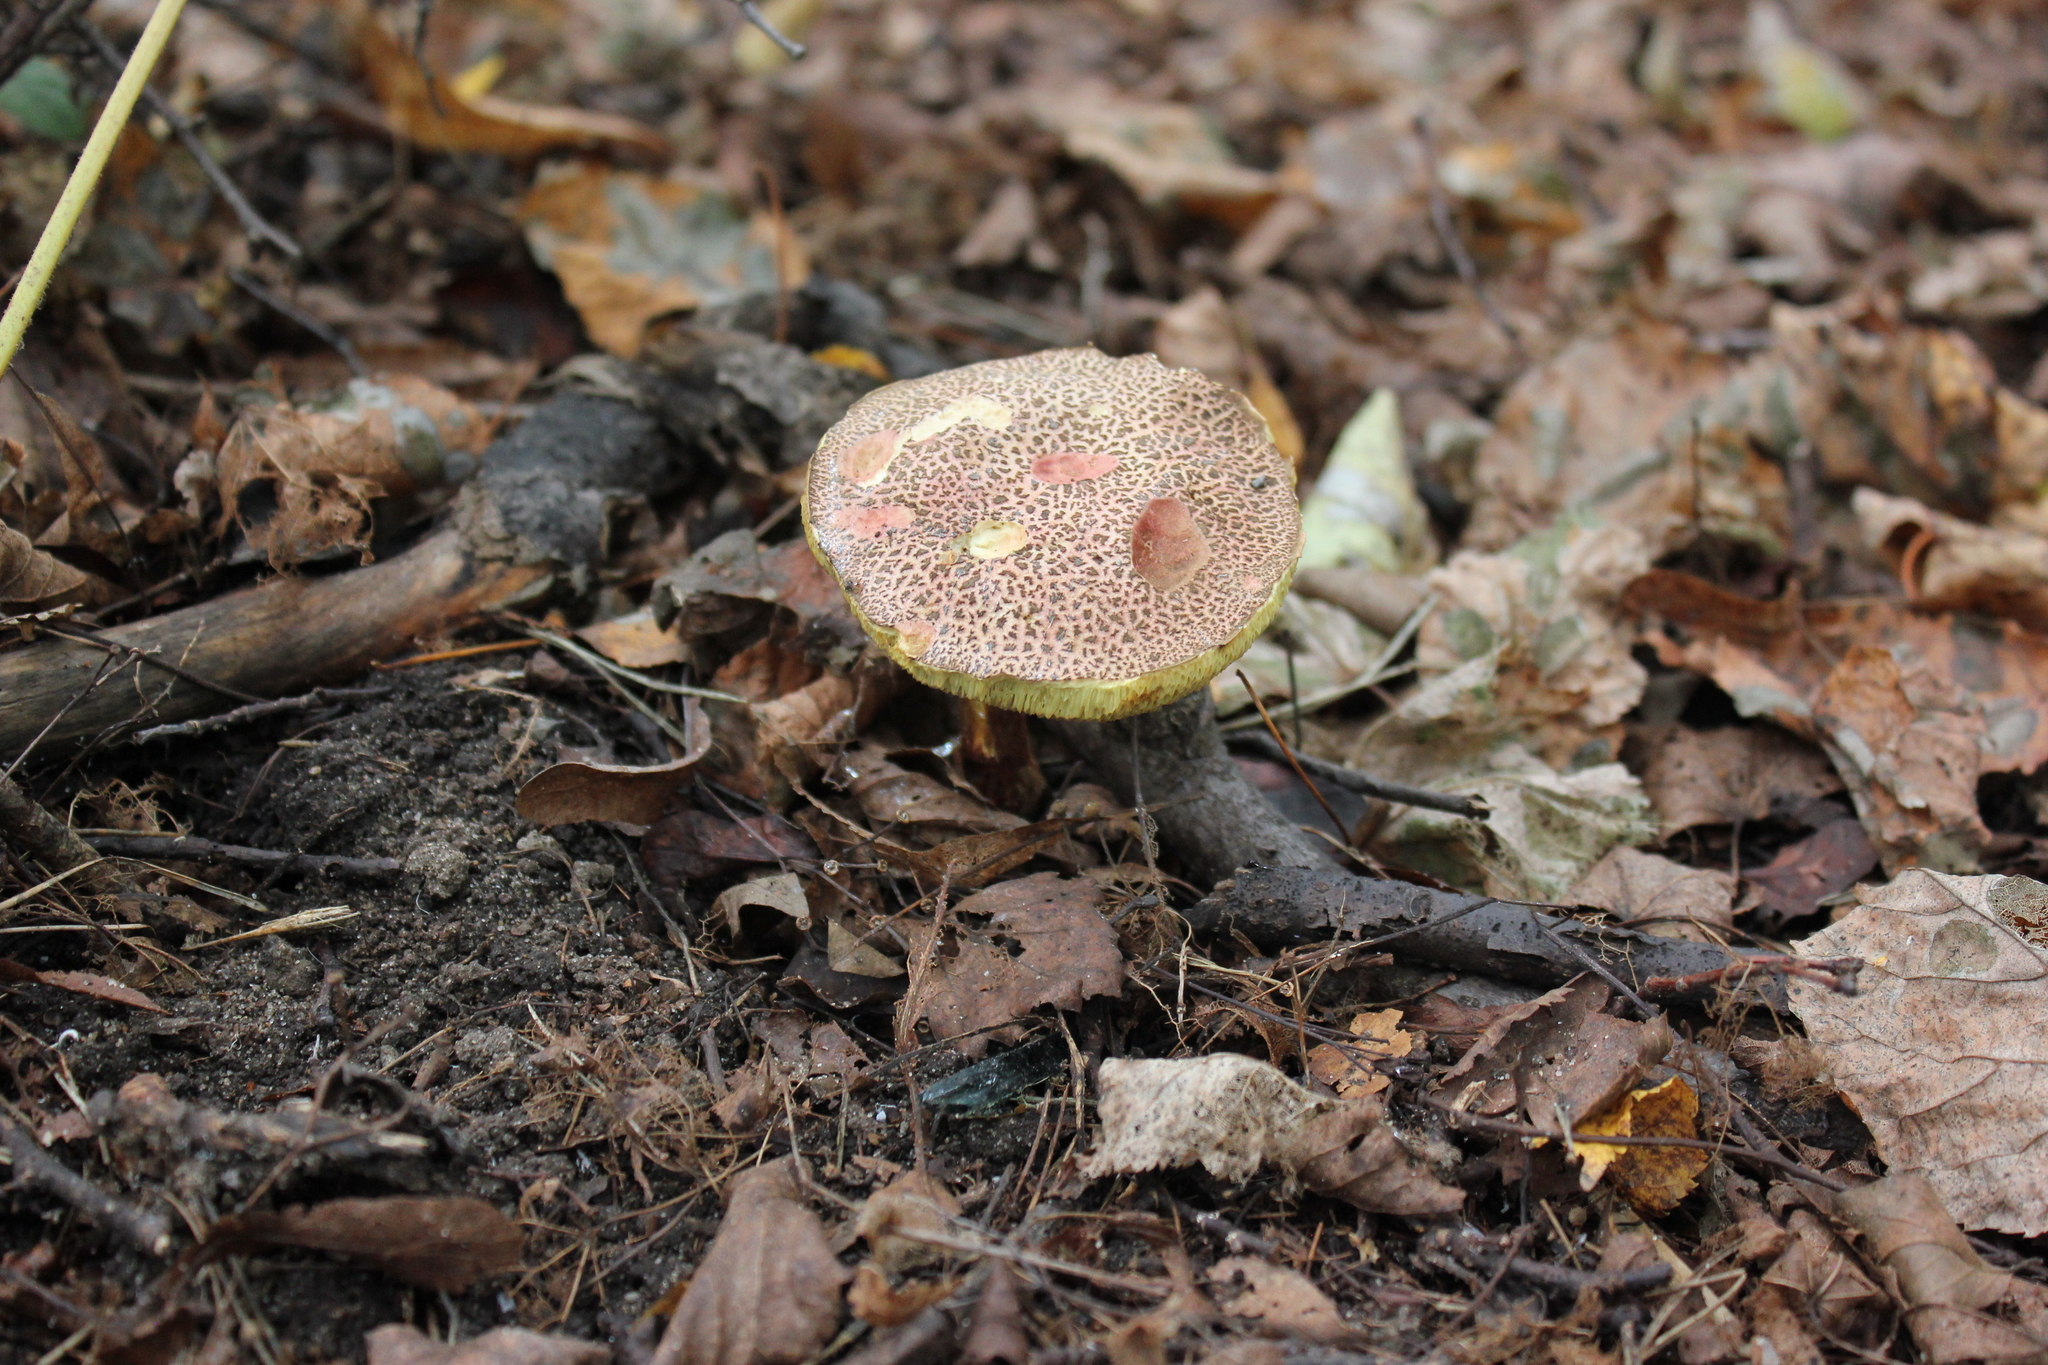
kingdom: Fungi
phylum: Basidiomycota
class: Agaricomycetes
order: Boletales
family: Boletaceae
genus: Xerocomellus
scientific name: Xerocomellus chrysenteron
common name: Red-cracking bolete
